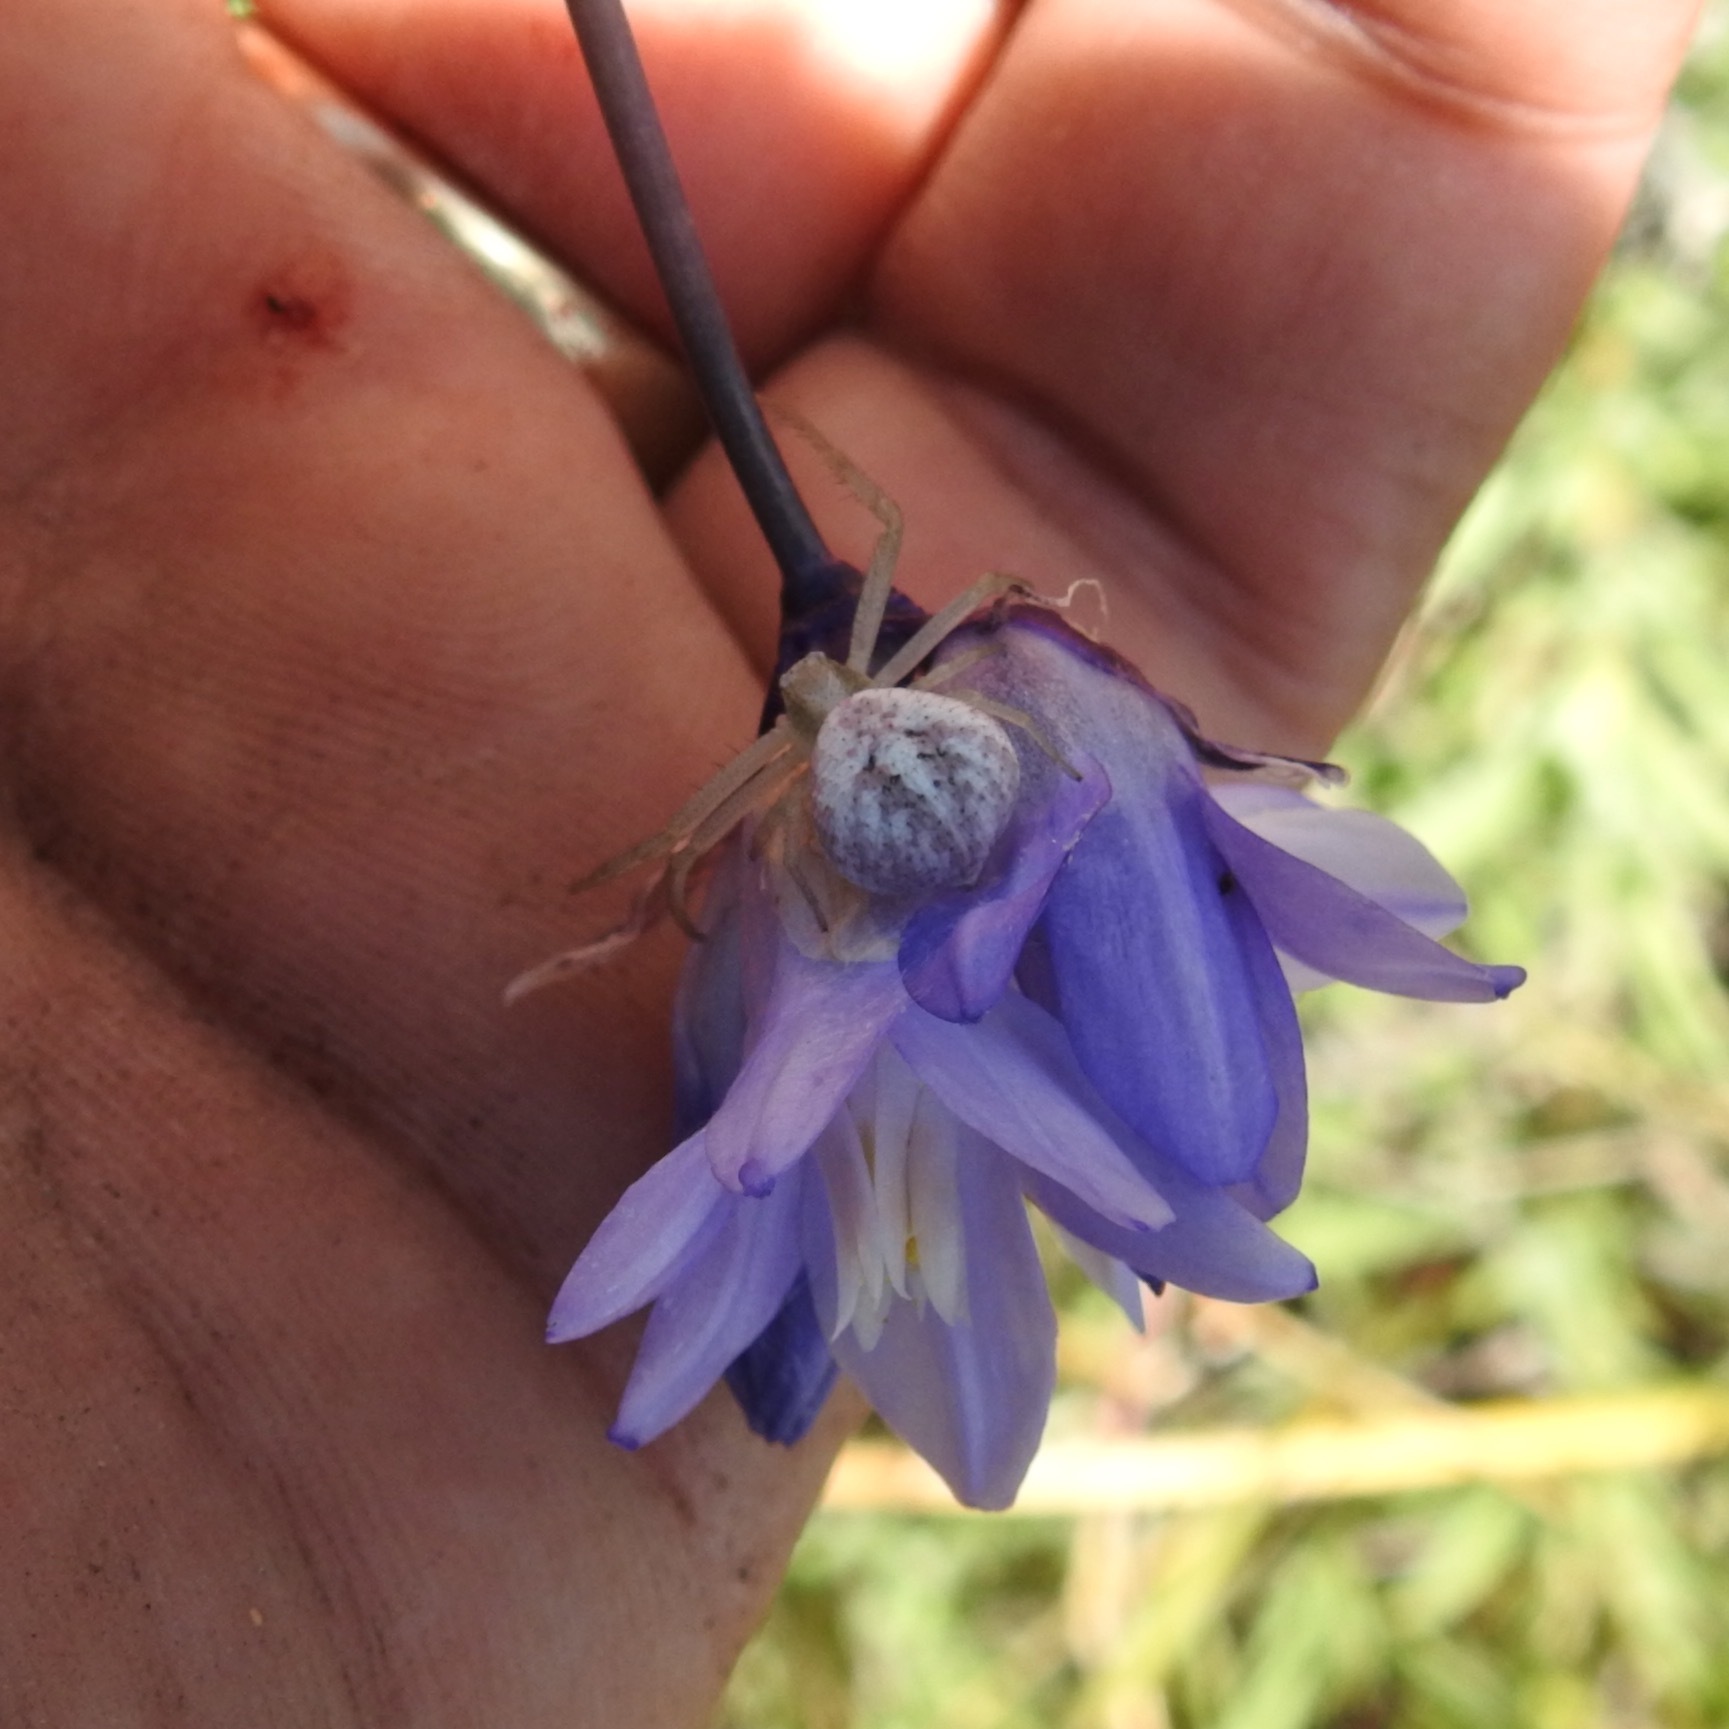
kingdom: Plantae
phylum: Tracheophyta
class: Liliopsida
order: Asparagales
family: Asparagaceae
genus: Dipterostemon
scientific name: Dipterostemon capitatus
